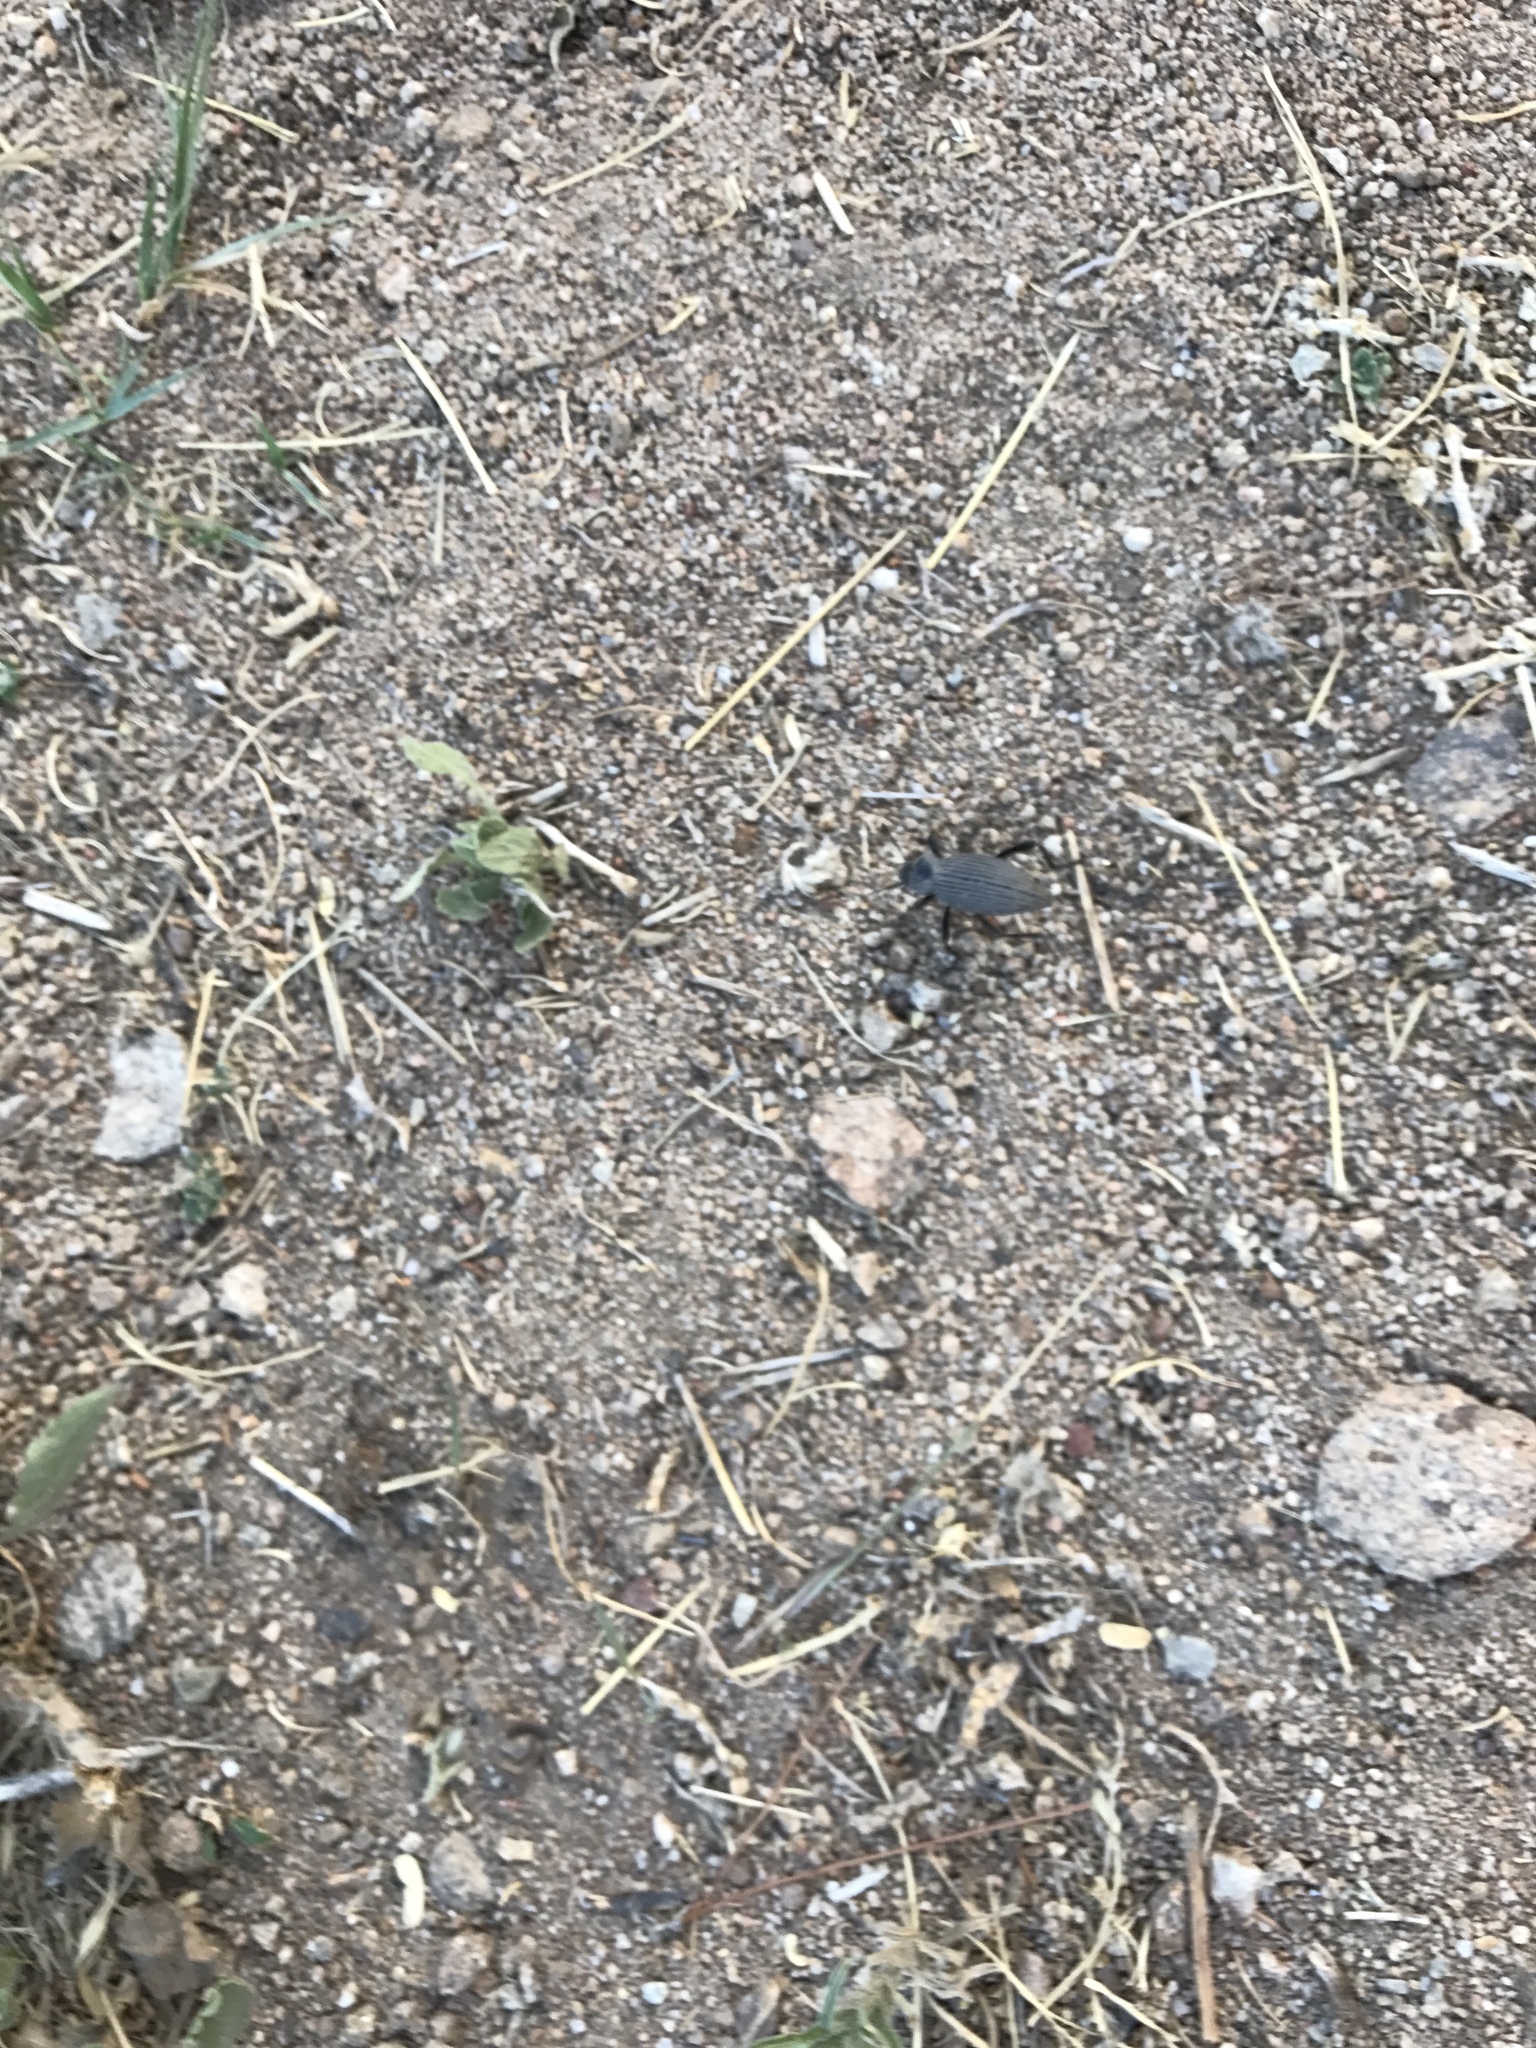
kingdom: Animalia
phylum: Arthropoda
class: Insecta
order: Coleoptera
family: Tenebrionidae
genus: Eleodes
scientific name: Eleodes hispilabris
